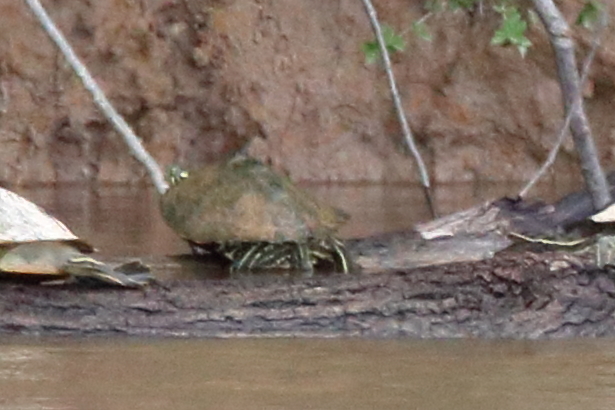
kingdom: Animalia
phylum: Chordata
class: Testudines
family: Emydidae
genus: Graptemys
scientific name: Graptemys oculifera
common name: Ringed map turtle
